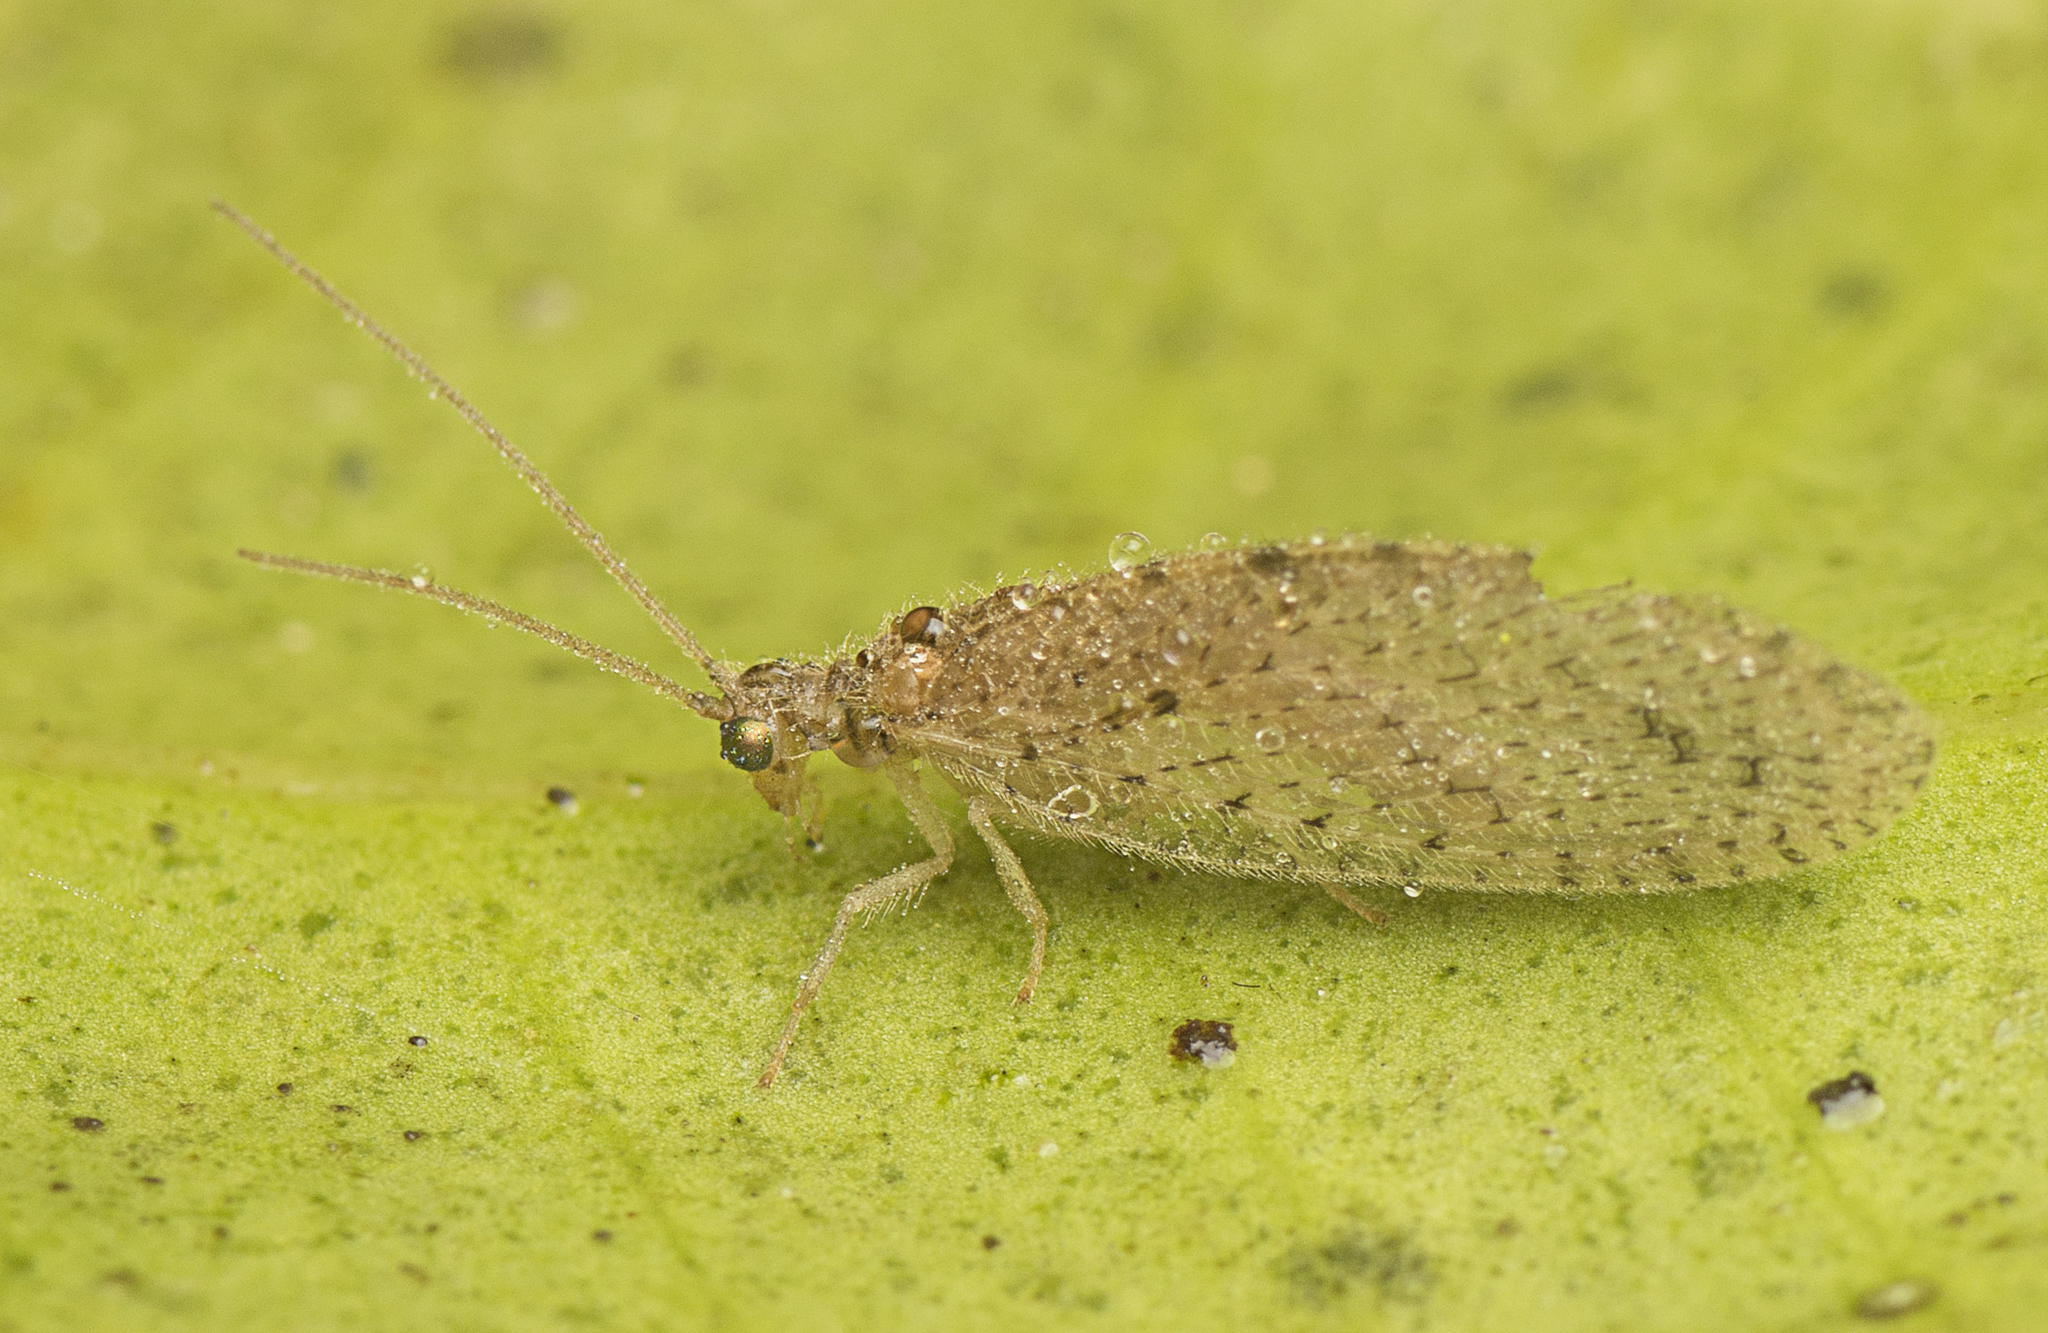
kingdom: Animalia
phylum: Arthropoda
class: Insecta
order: Neuroptera
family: Hemerobiidae
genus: Micromus
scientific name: Micromus tasmaniae
